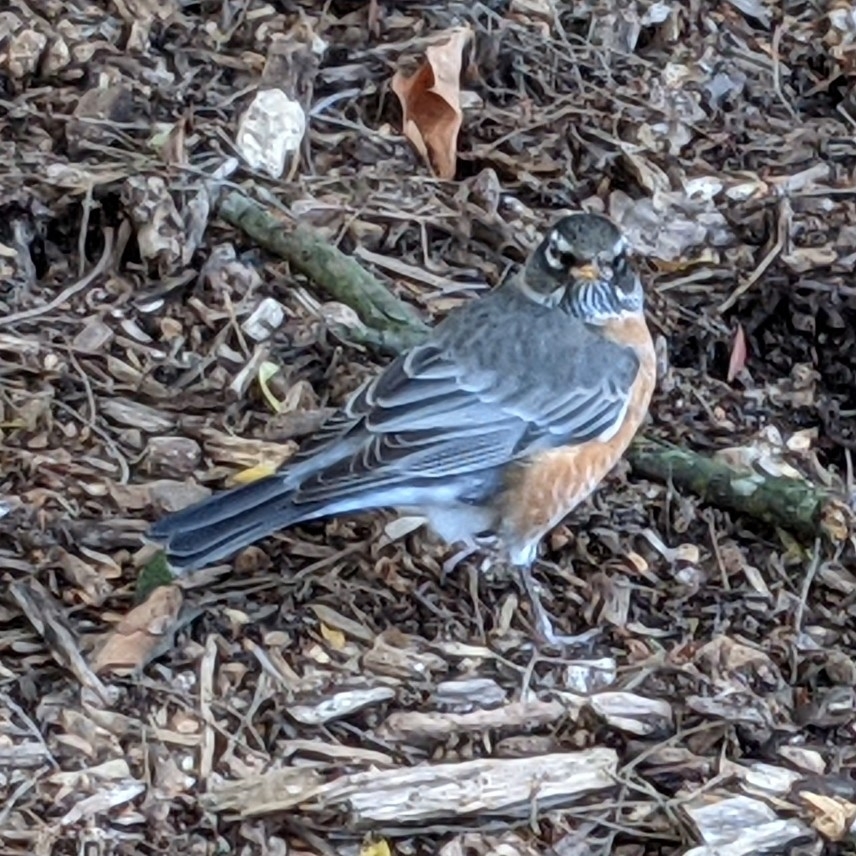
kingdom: Animalia
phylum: Chordata
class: Aves
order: Passeriformes
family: Turdidae
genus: Turdus
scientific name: Turdus migratorius
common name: American robin
